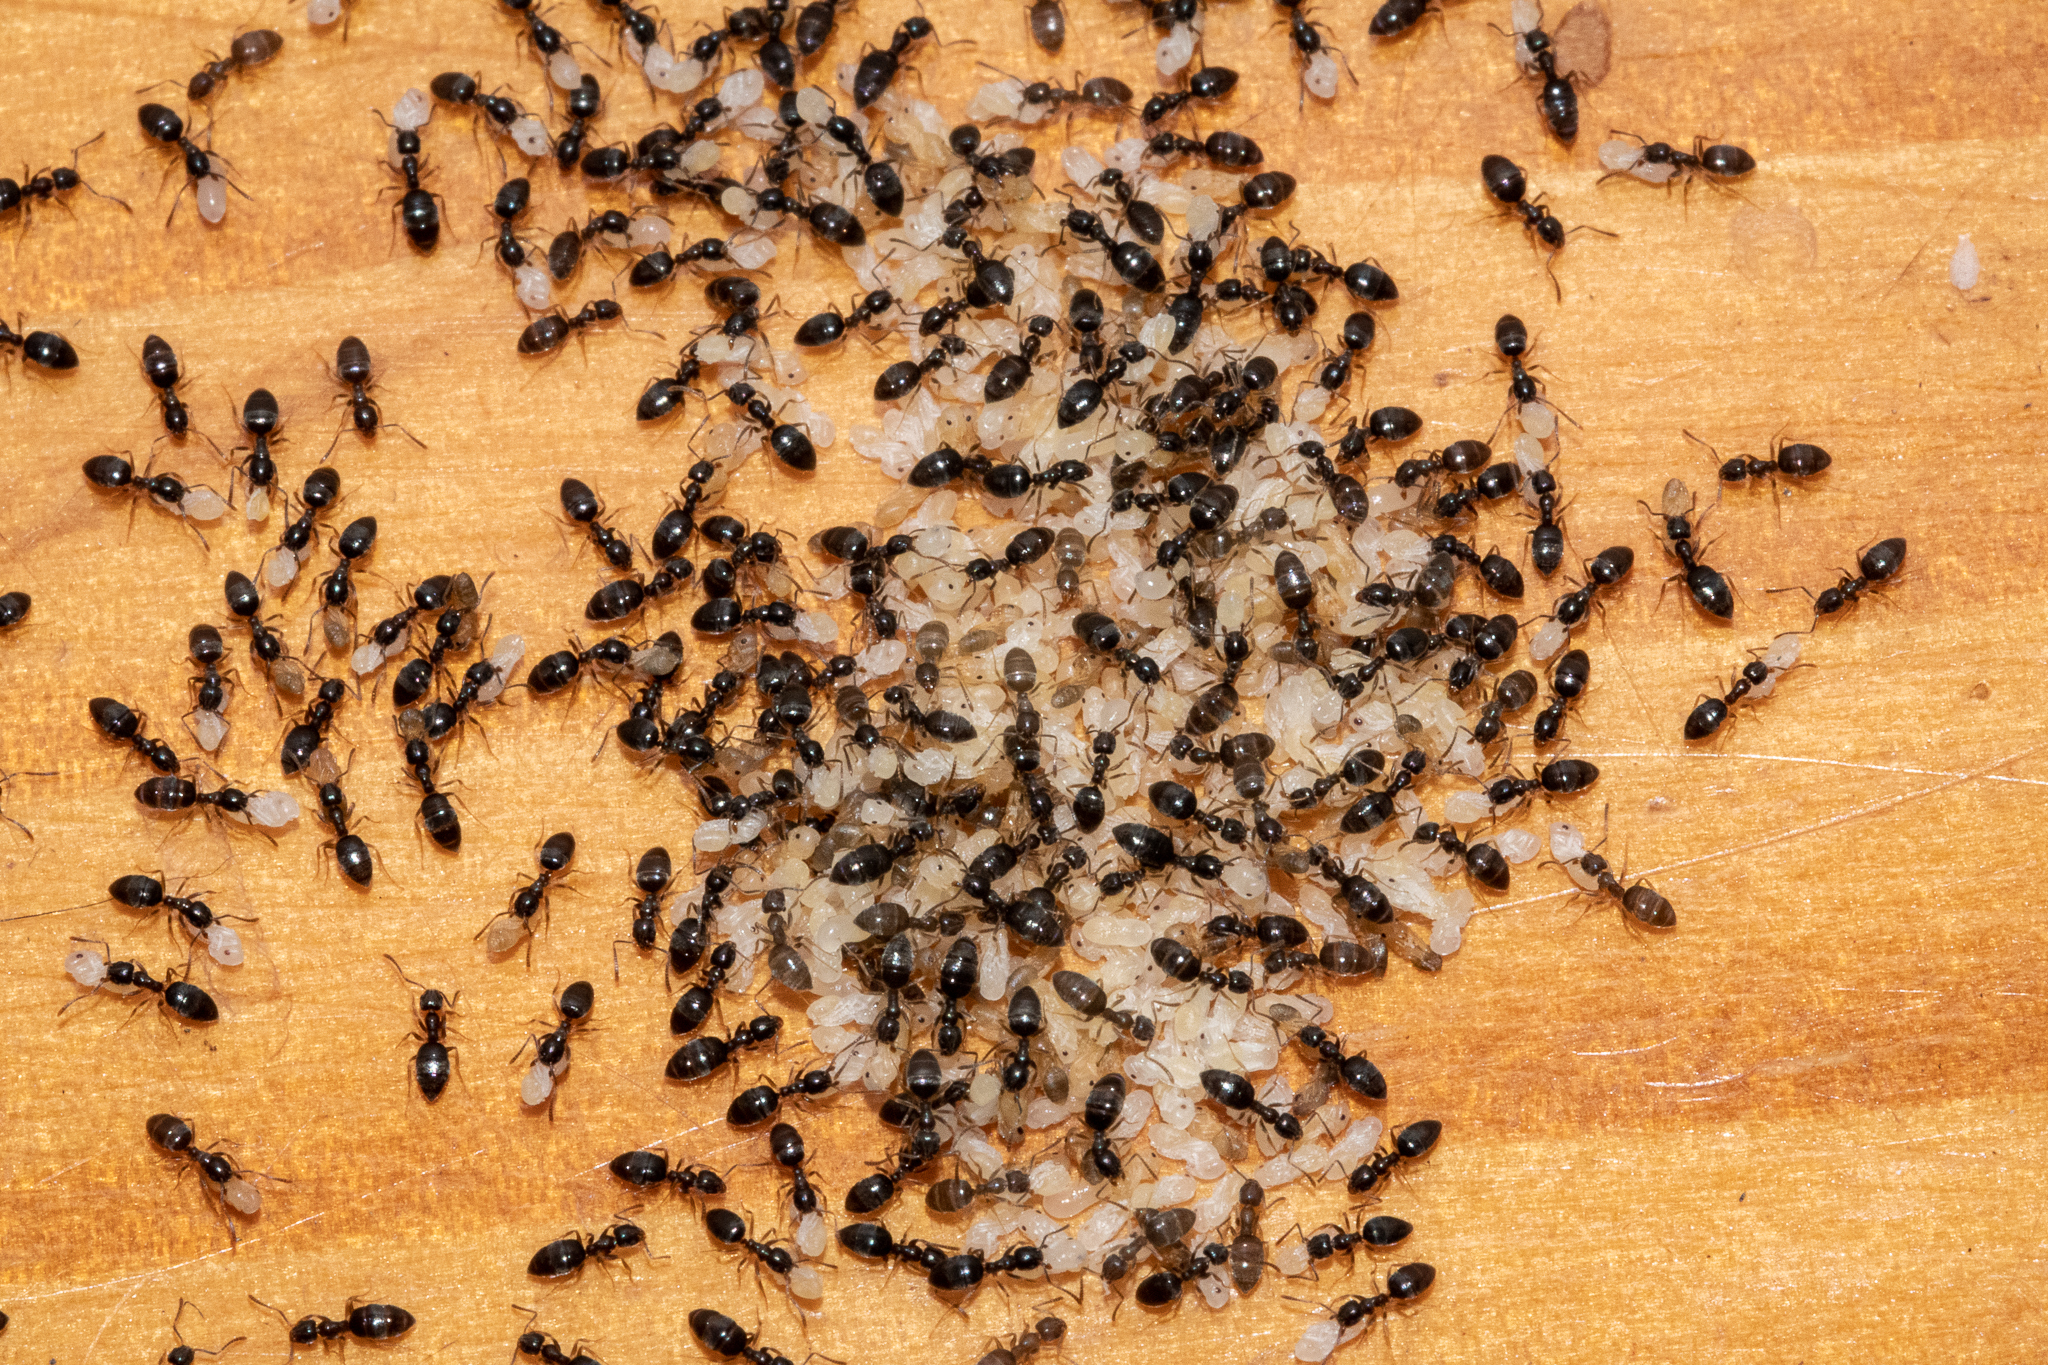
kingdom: Animalia
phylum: Arthropoda
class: Insecta
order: Hymenoptera
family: Formicidae
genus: Tapinoma
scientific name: Tapinoma pallipes
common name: Ant
